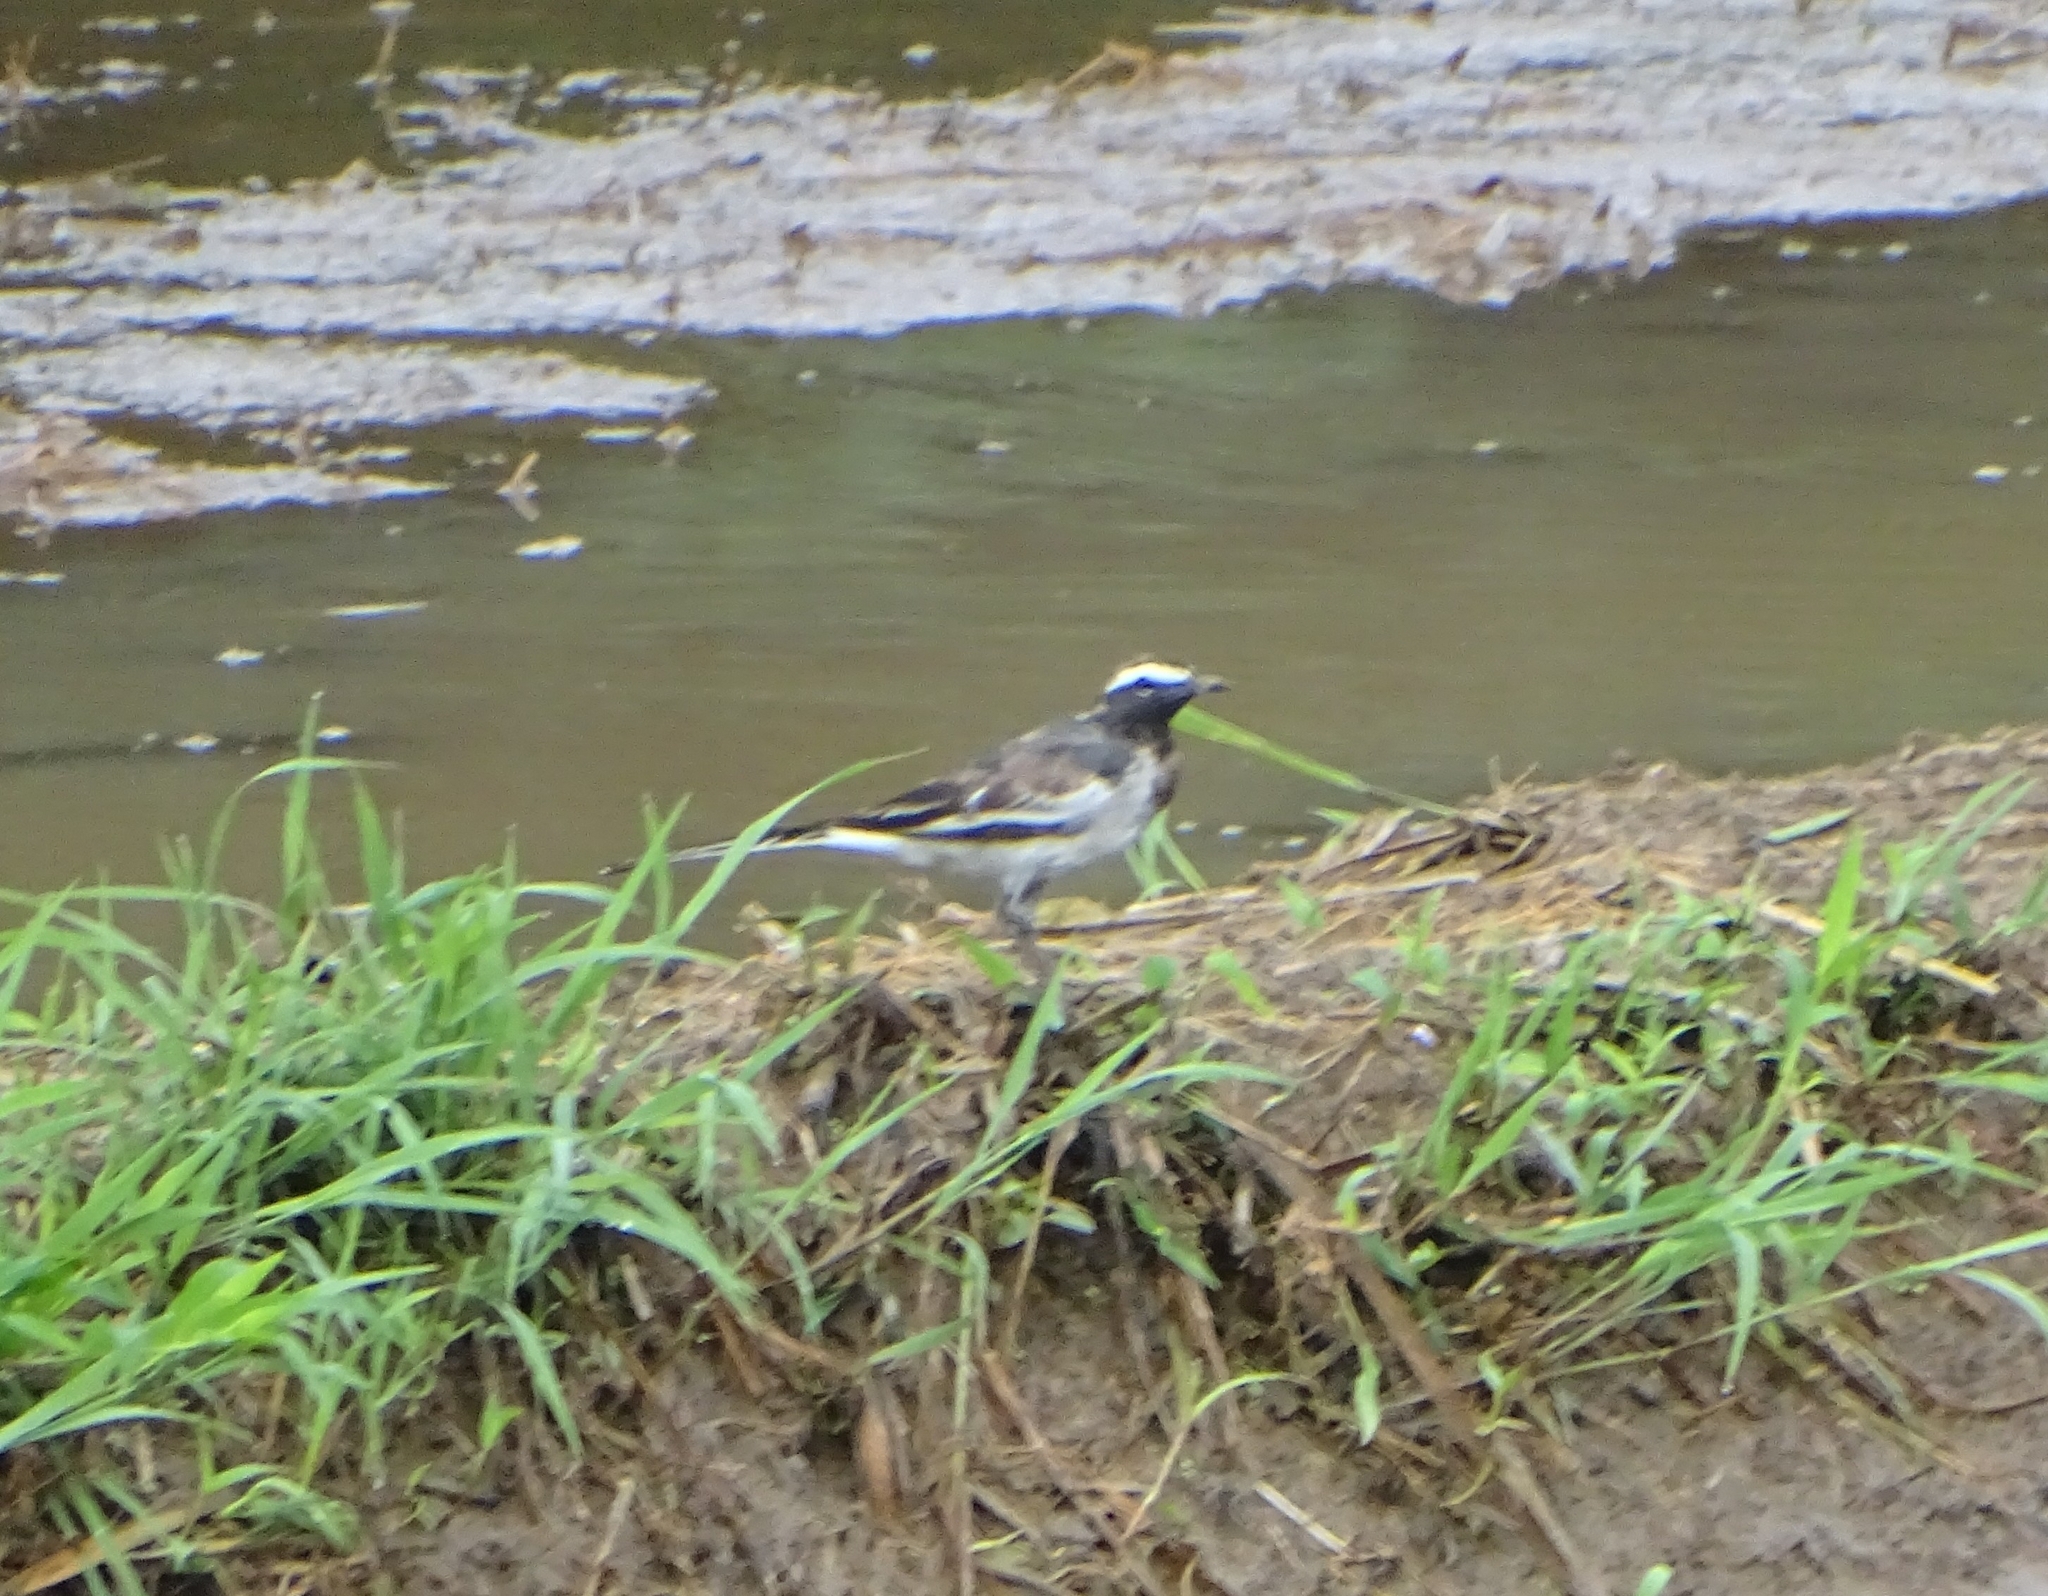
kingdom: Animalia
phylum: Chordata
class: Aves
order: Passeriformes
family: Motacillidae
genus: Motacilla
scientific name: Motacilla maderaspatensis
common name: White-browed wagtail
